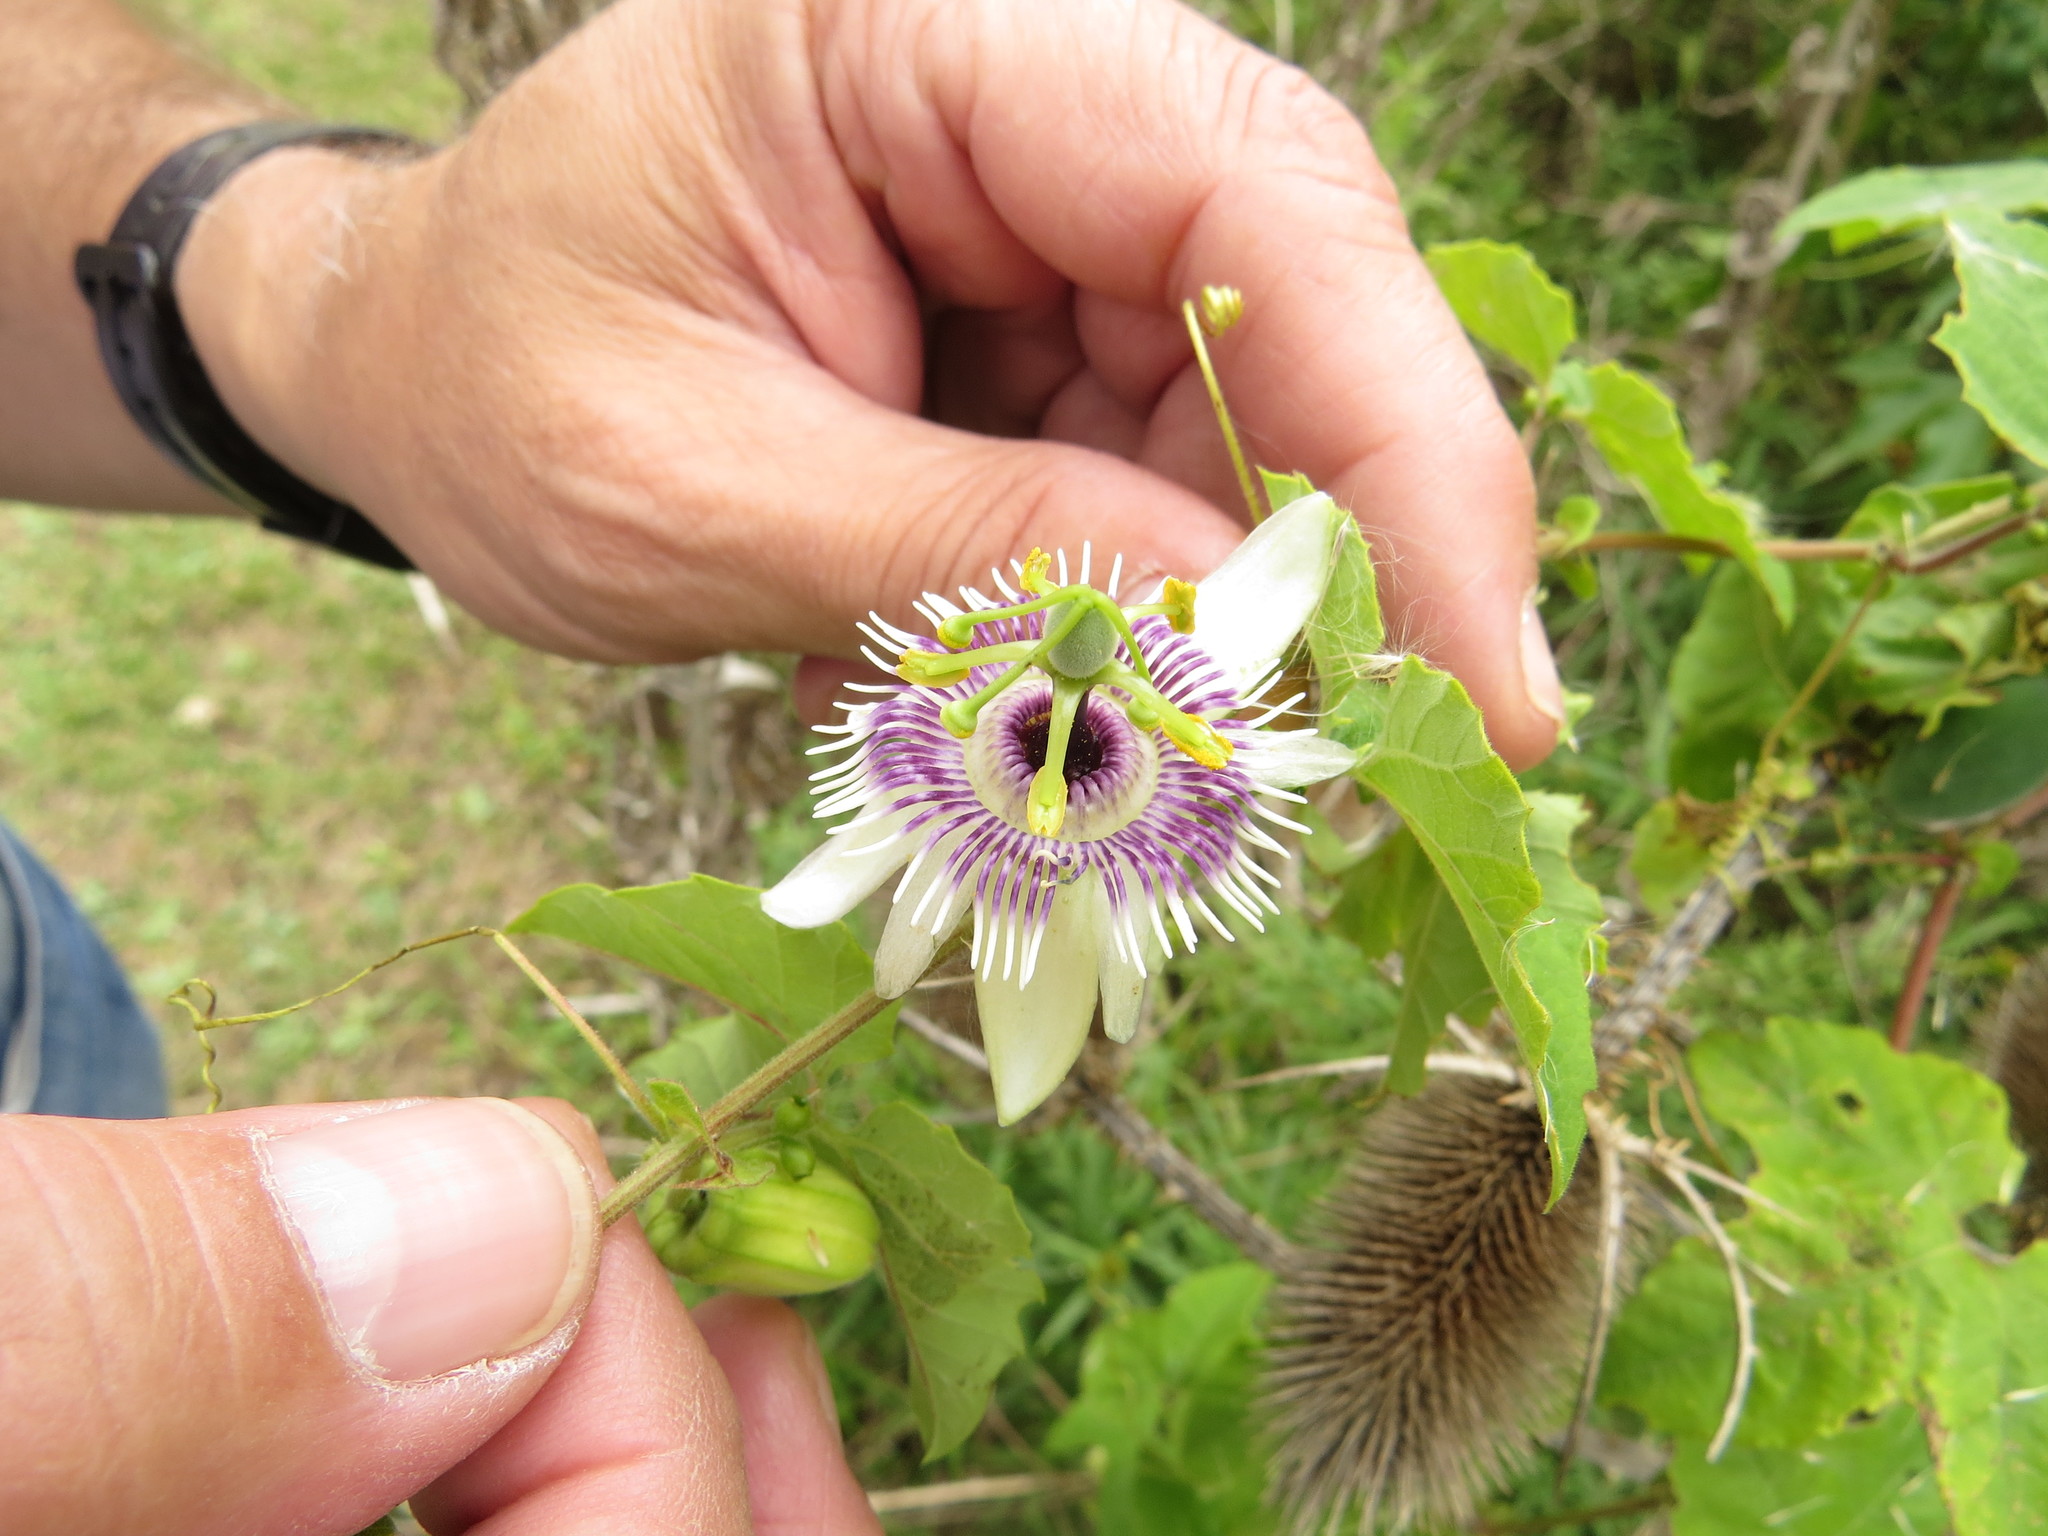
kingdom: Plantae
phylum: Tracheophyta
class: Magnoliopsida
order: Malpighiales
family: Passifloraceae
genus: Passiflora
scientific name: Passiflora morifolia
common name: Woodland passionflower
